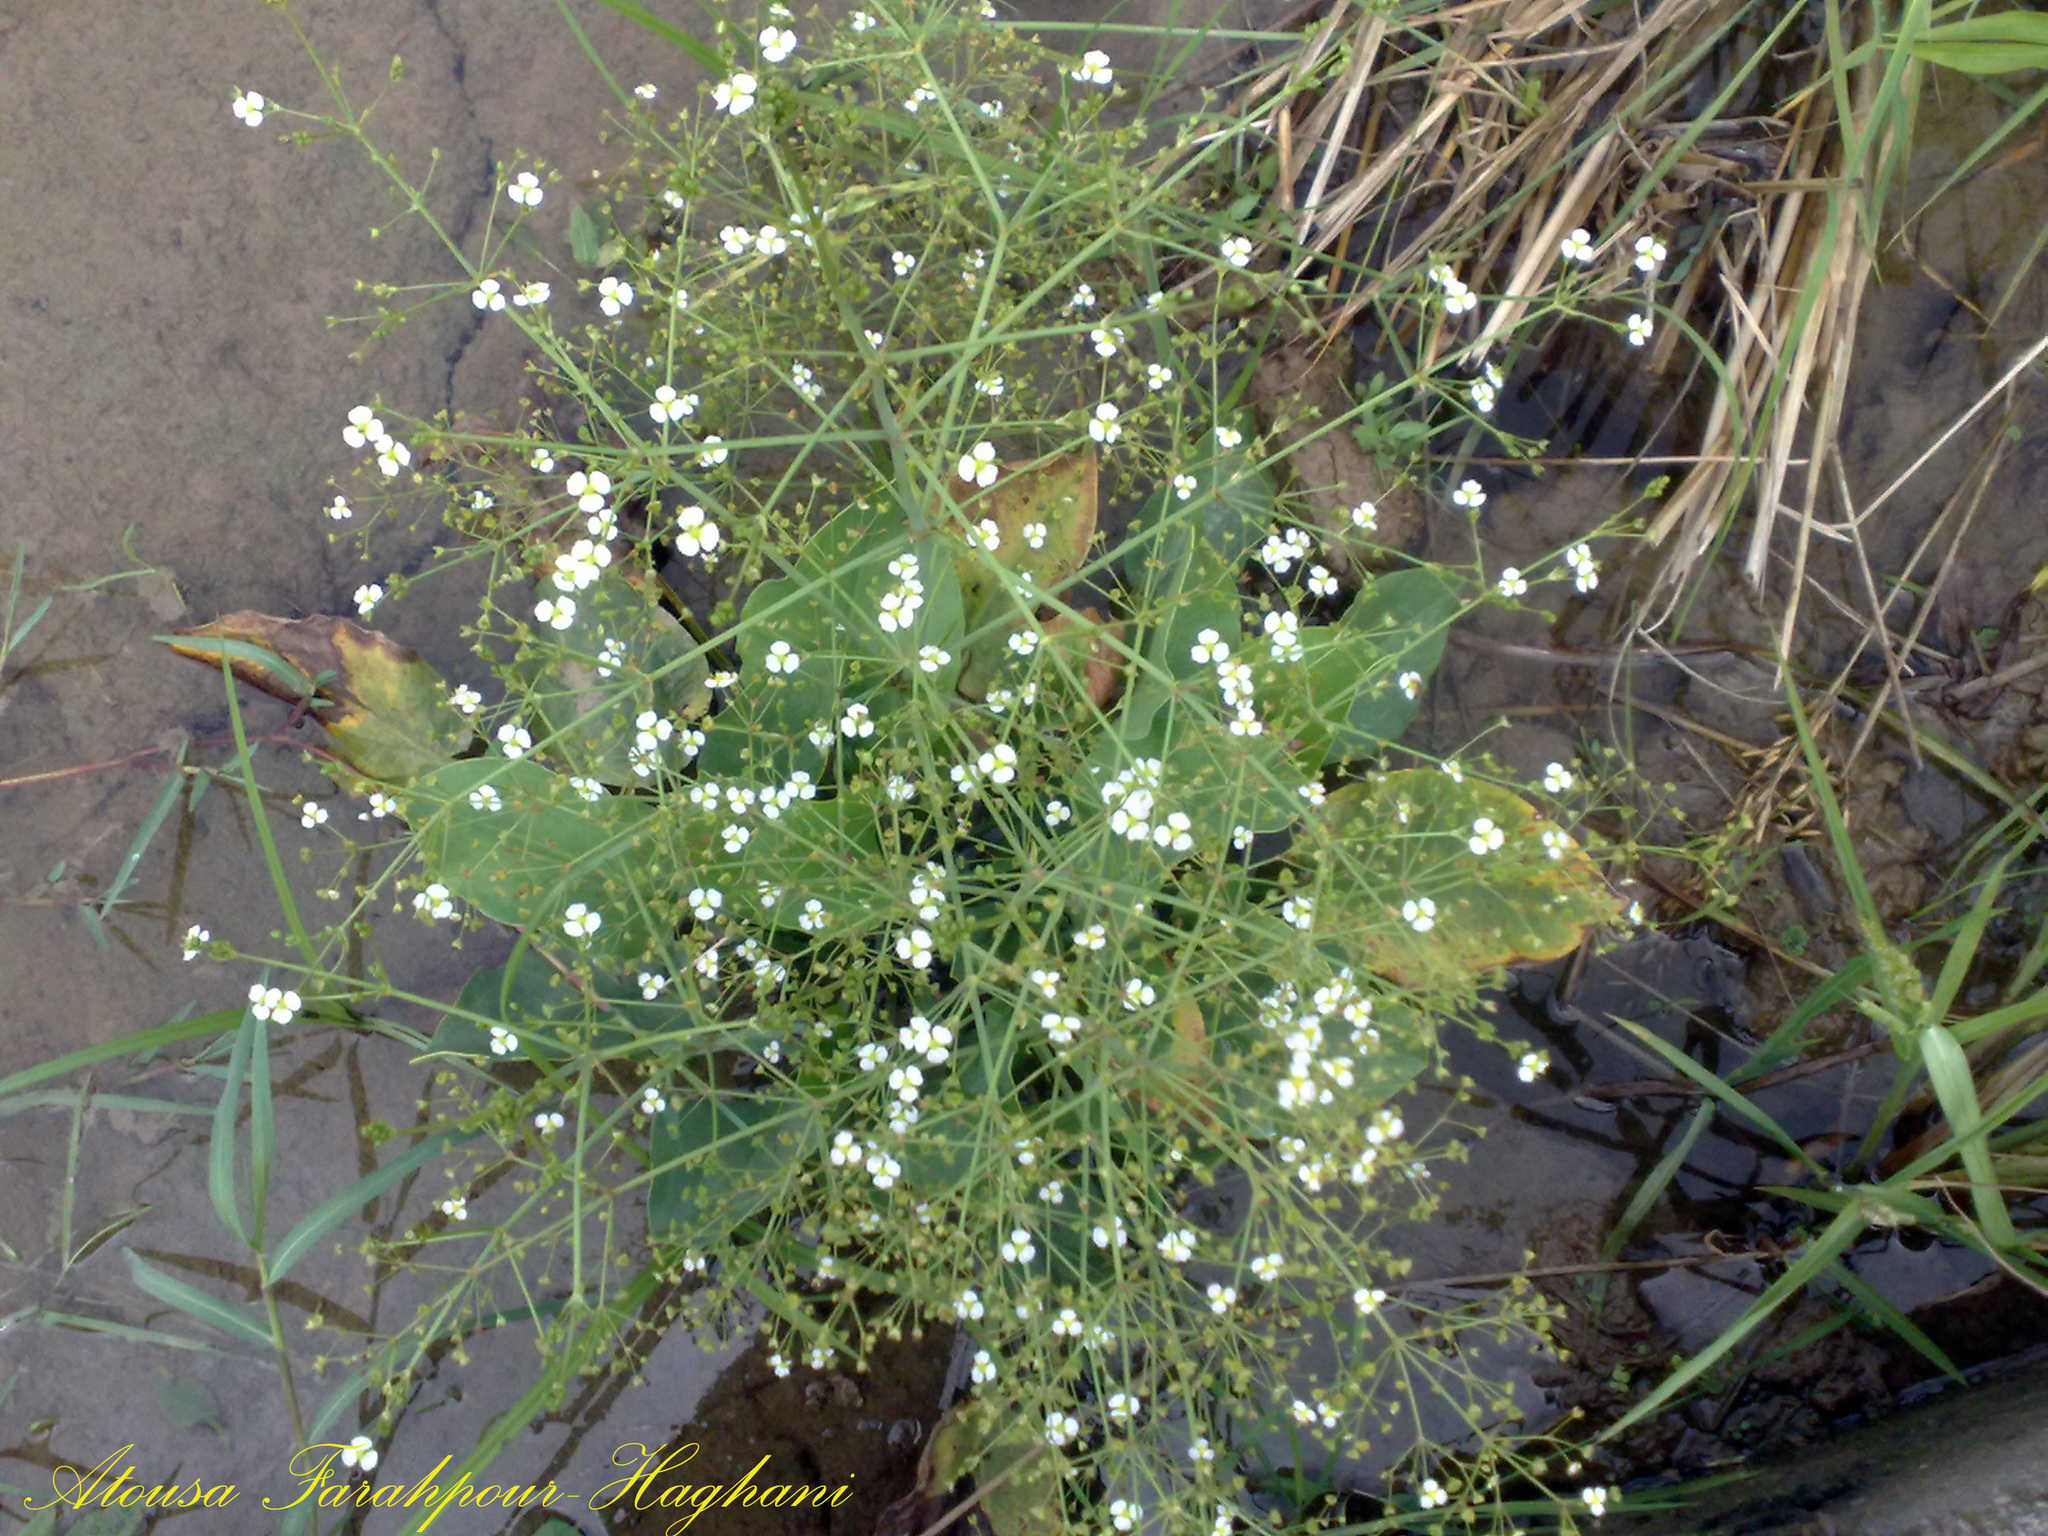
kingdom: Plantae
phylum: Tracheophyta
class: Liliopsida
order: Alismatales
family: Alismataceae
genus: Alisma
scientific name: Alisma plantago-aquatica
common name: Water-plantain
